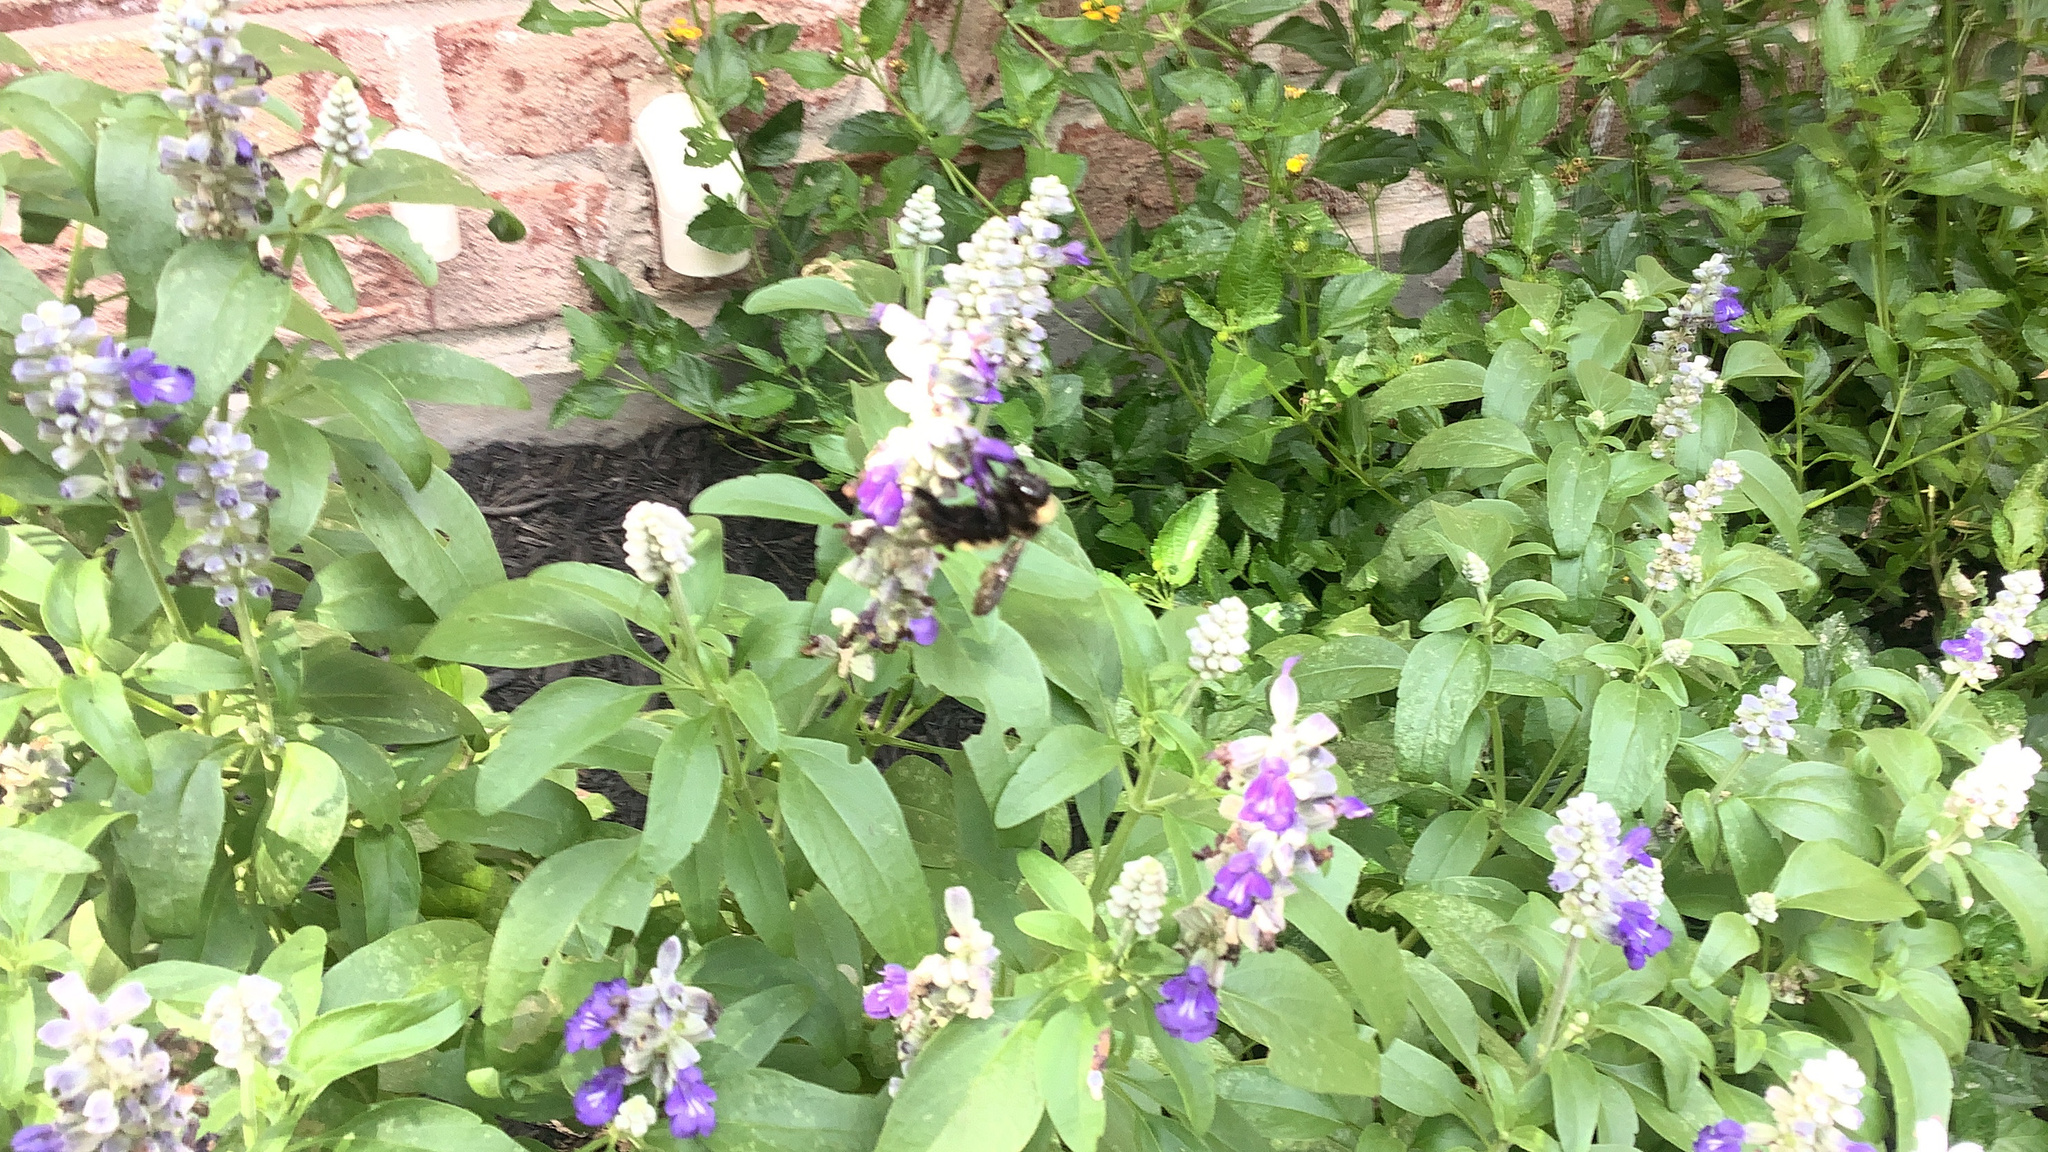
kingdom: Animalia
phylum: Arthropoda
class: Insecta
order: Hymenoptera
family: Apidae
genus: Bombus
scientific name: Bombus pensylvanicus
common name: Bumble bee
